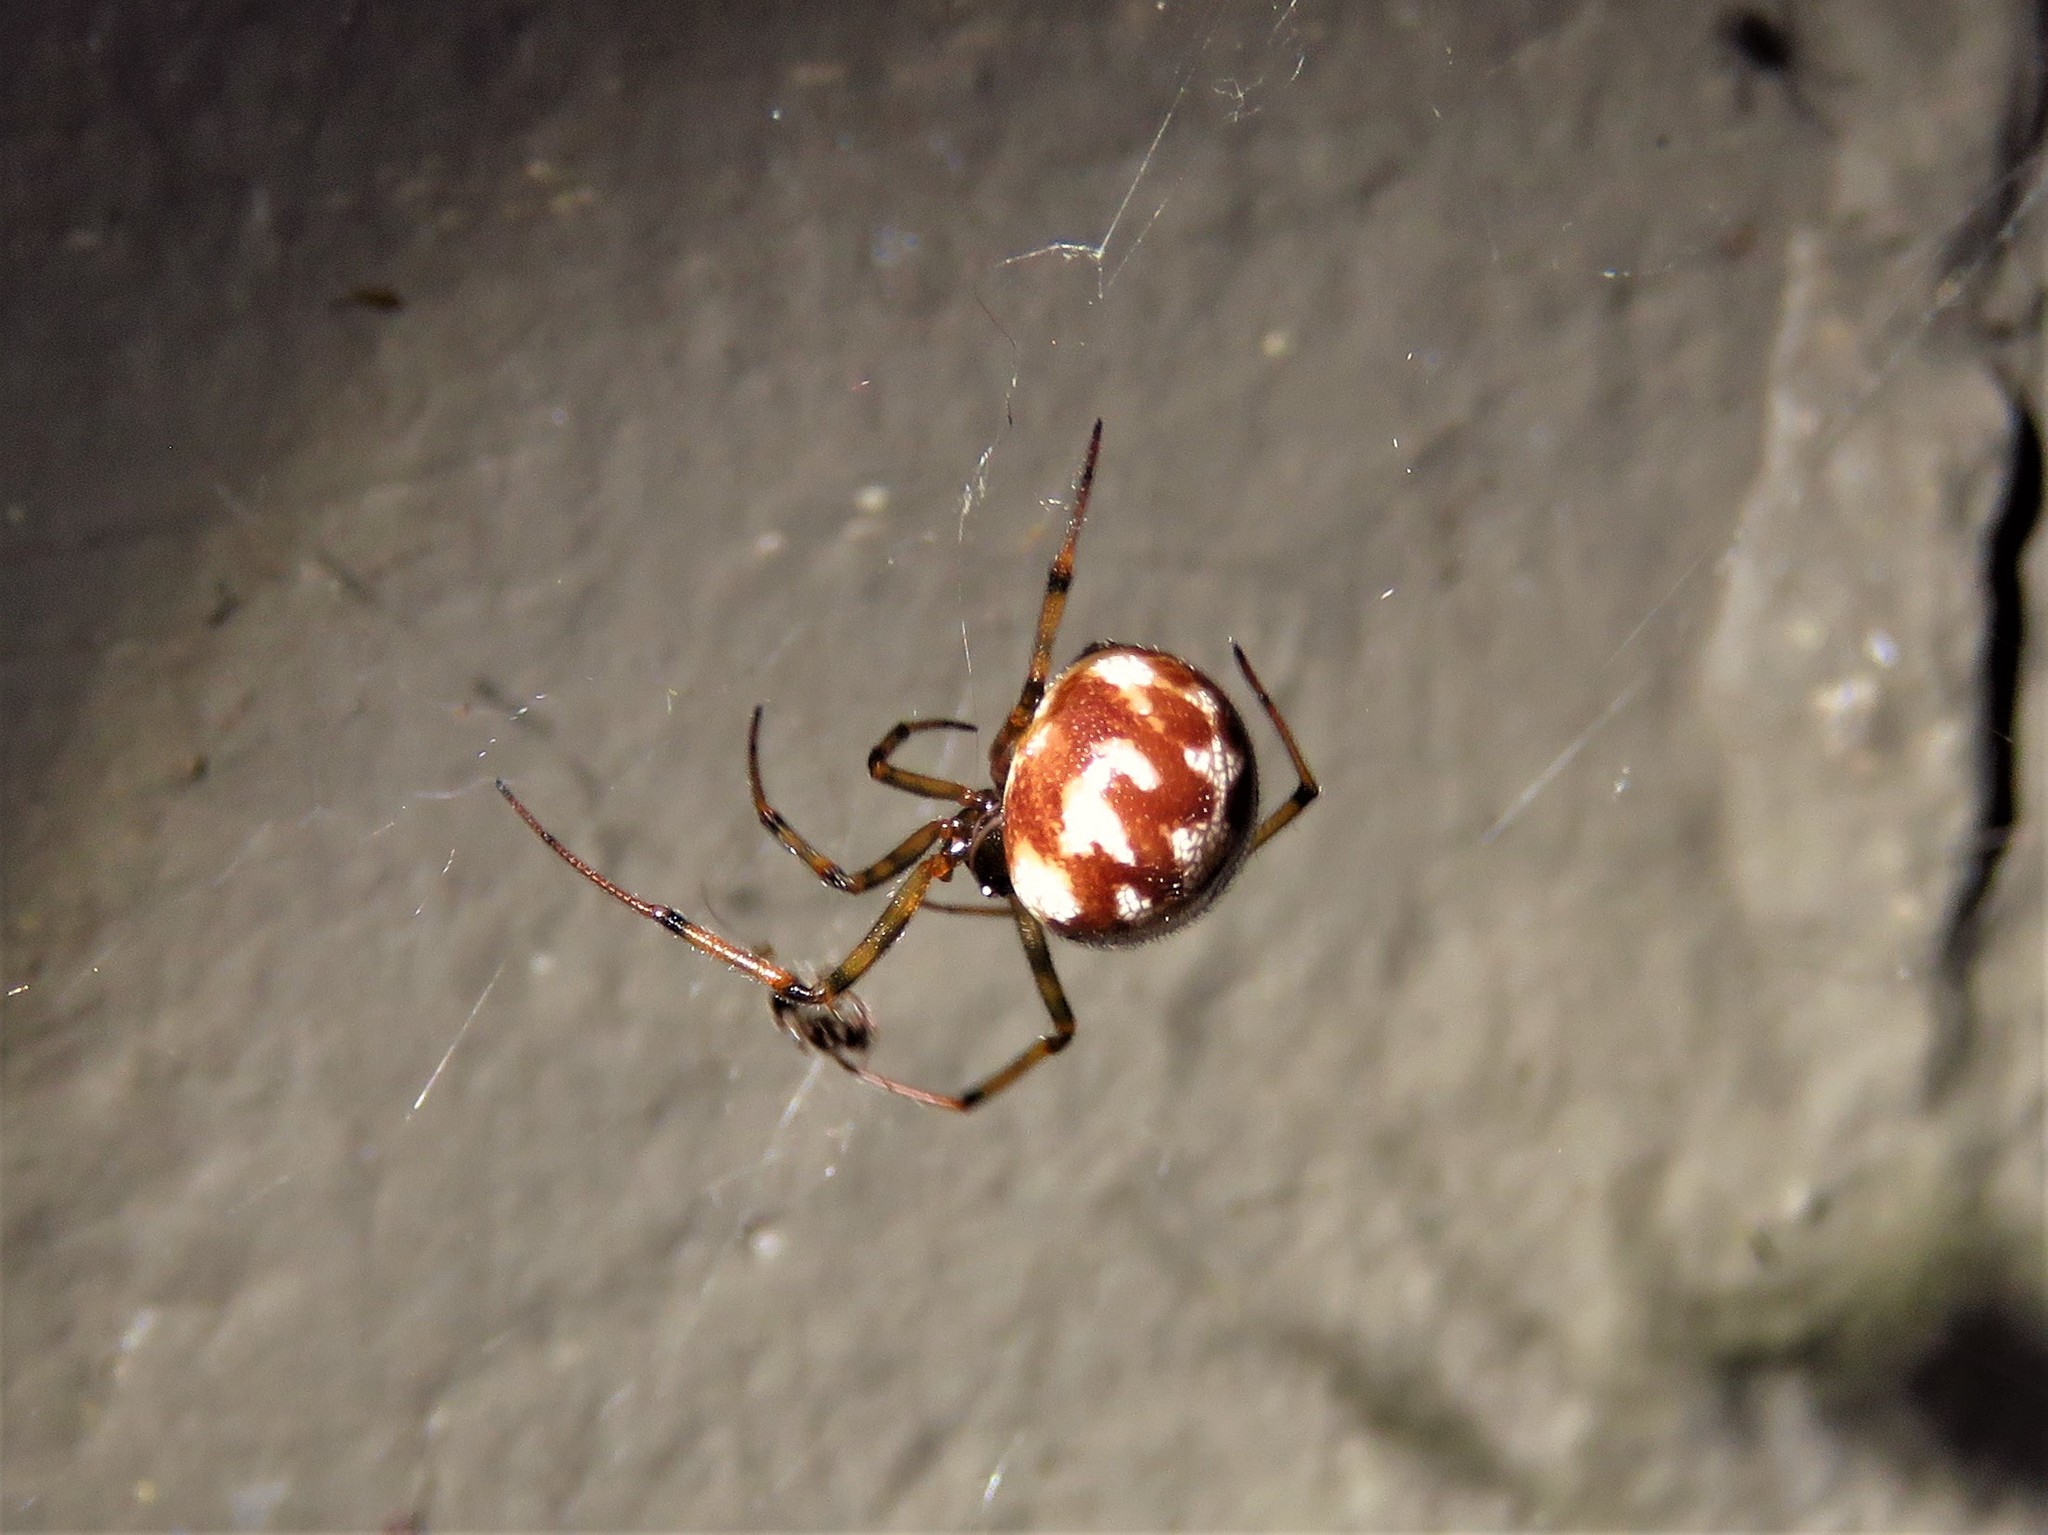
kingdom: Animalia
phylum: Arthropoda
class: Arachnida
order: Araneae
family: Theridiidae
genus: Steatoda
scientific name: Steatoda triangulosa
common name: Triangulate bud spider
